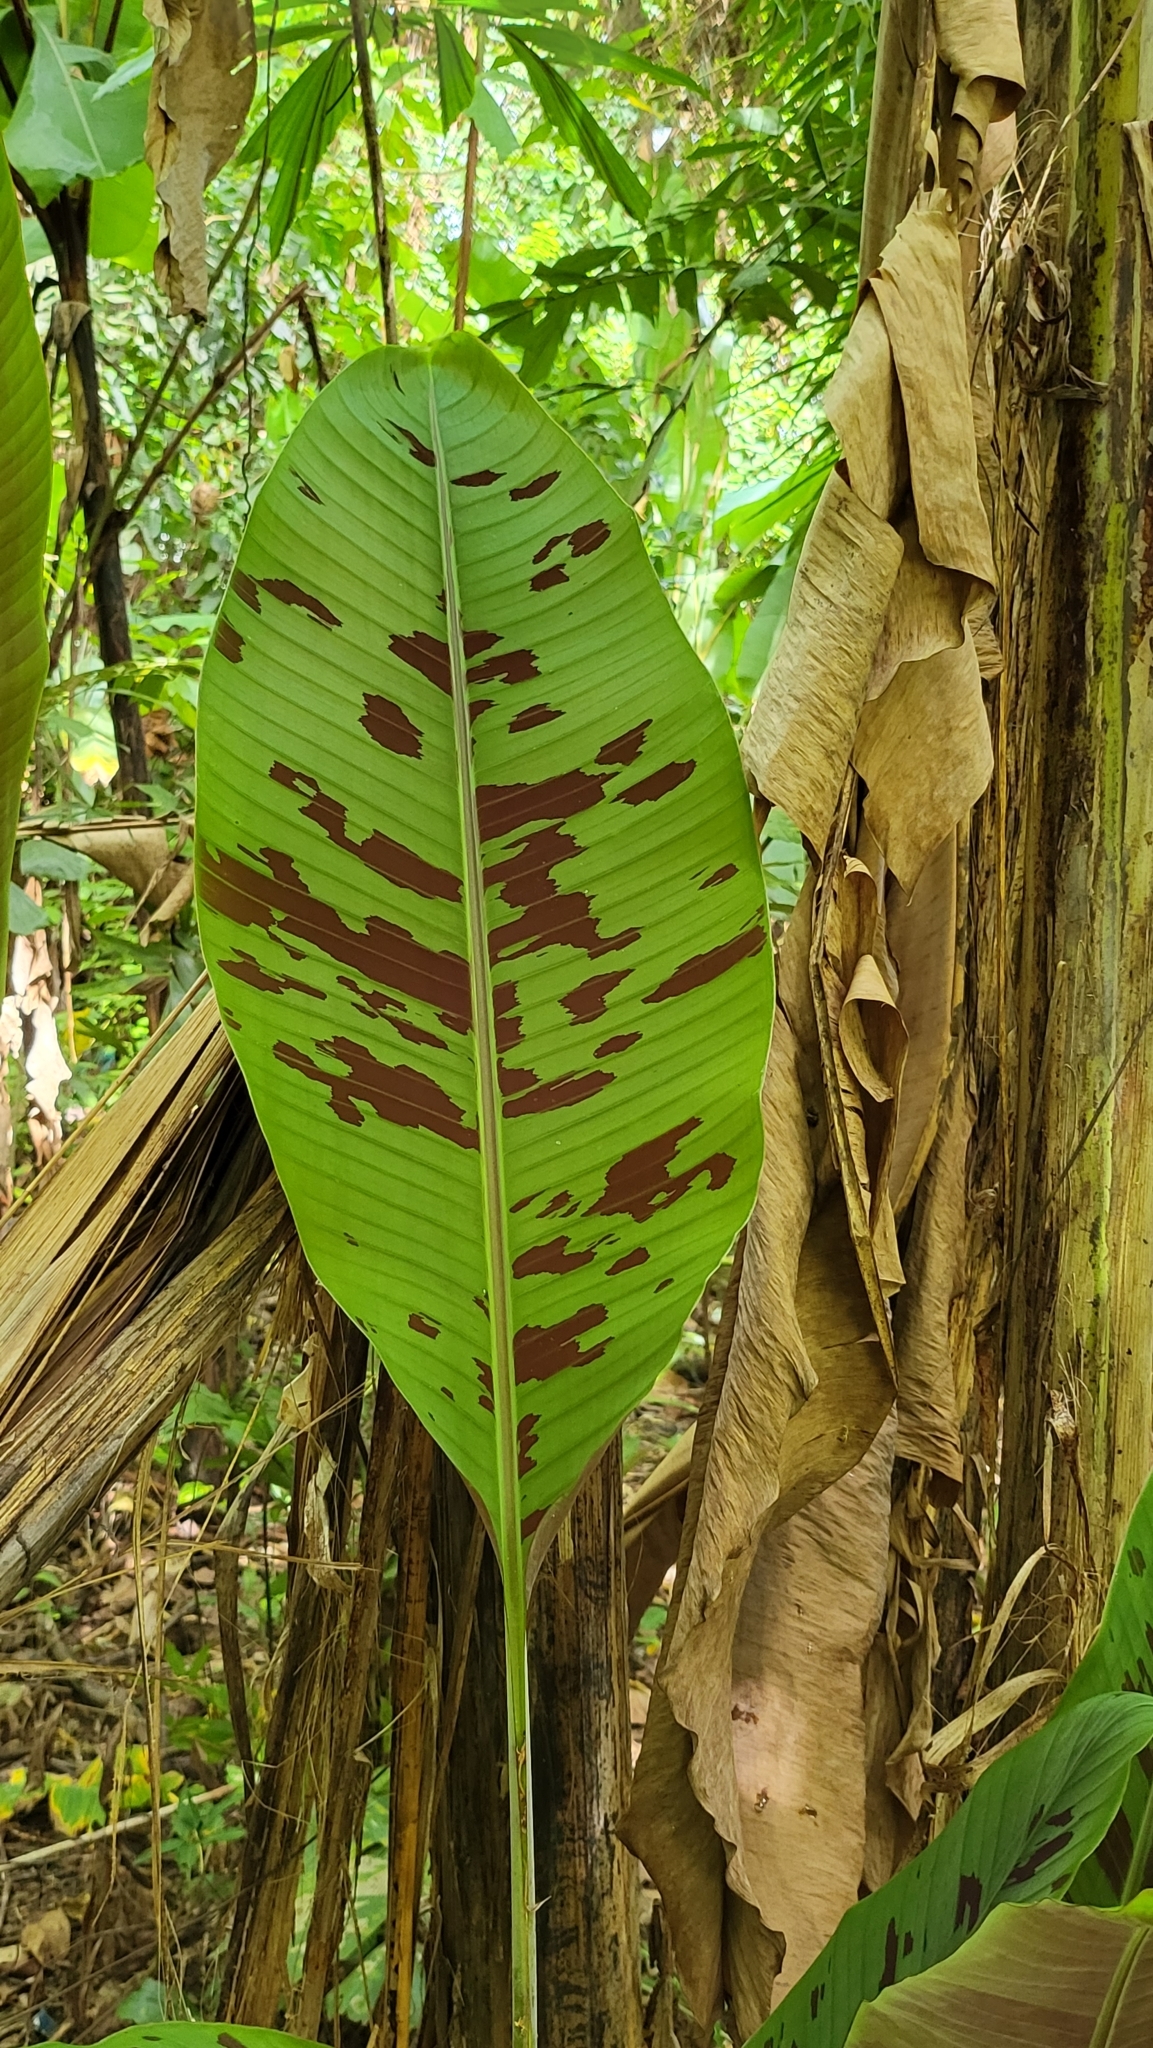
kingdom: Plantae
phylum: Tracheophyta
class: Liliopsida
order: Zingiberales
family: Musaceae
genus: Musa
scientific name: Musa acuminata
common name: Edible banana
